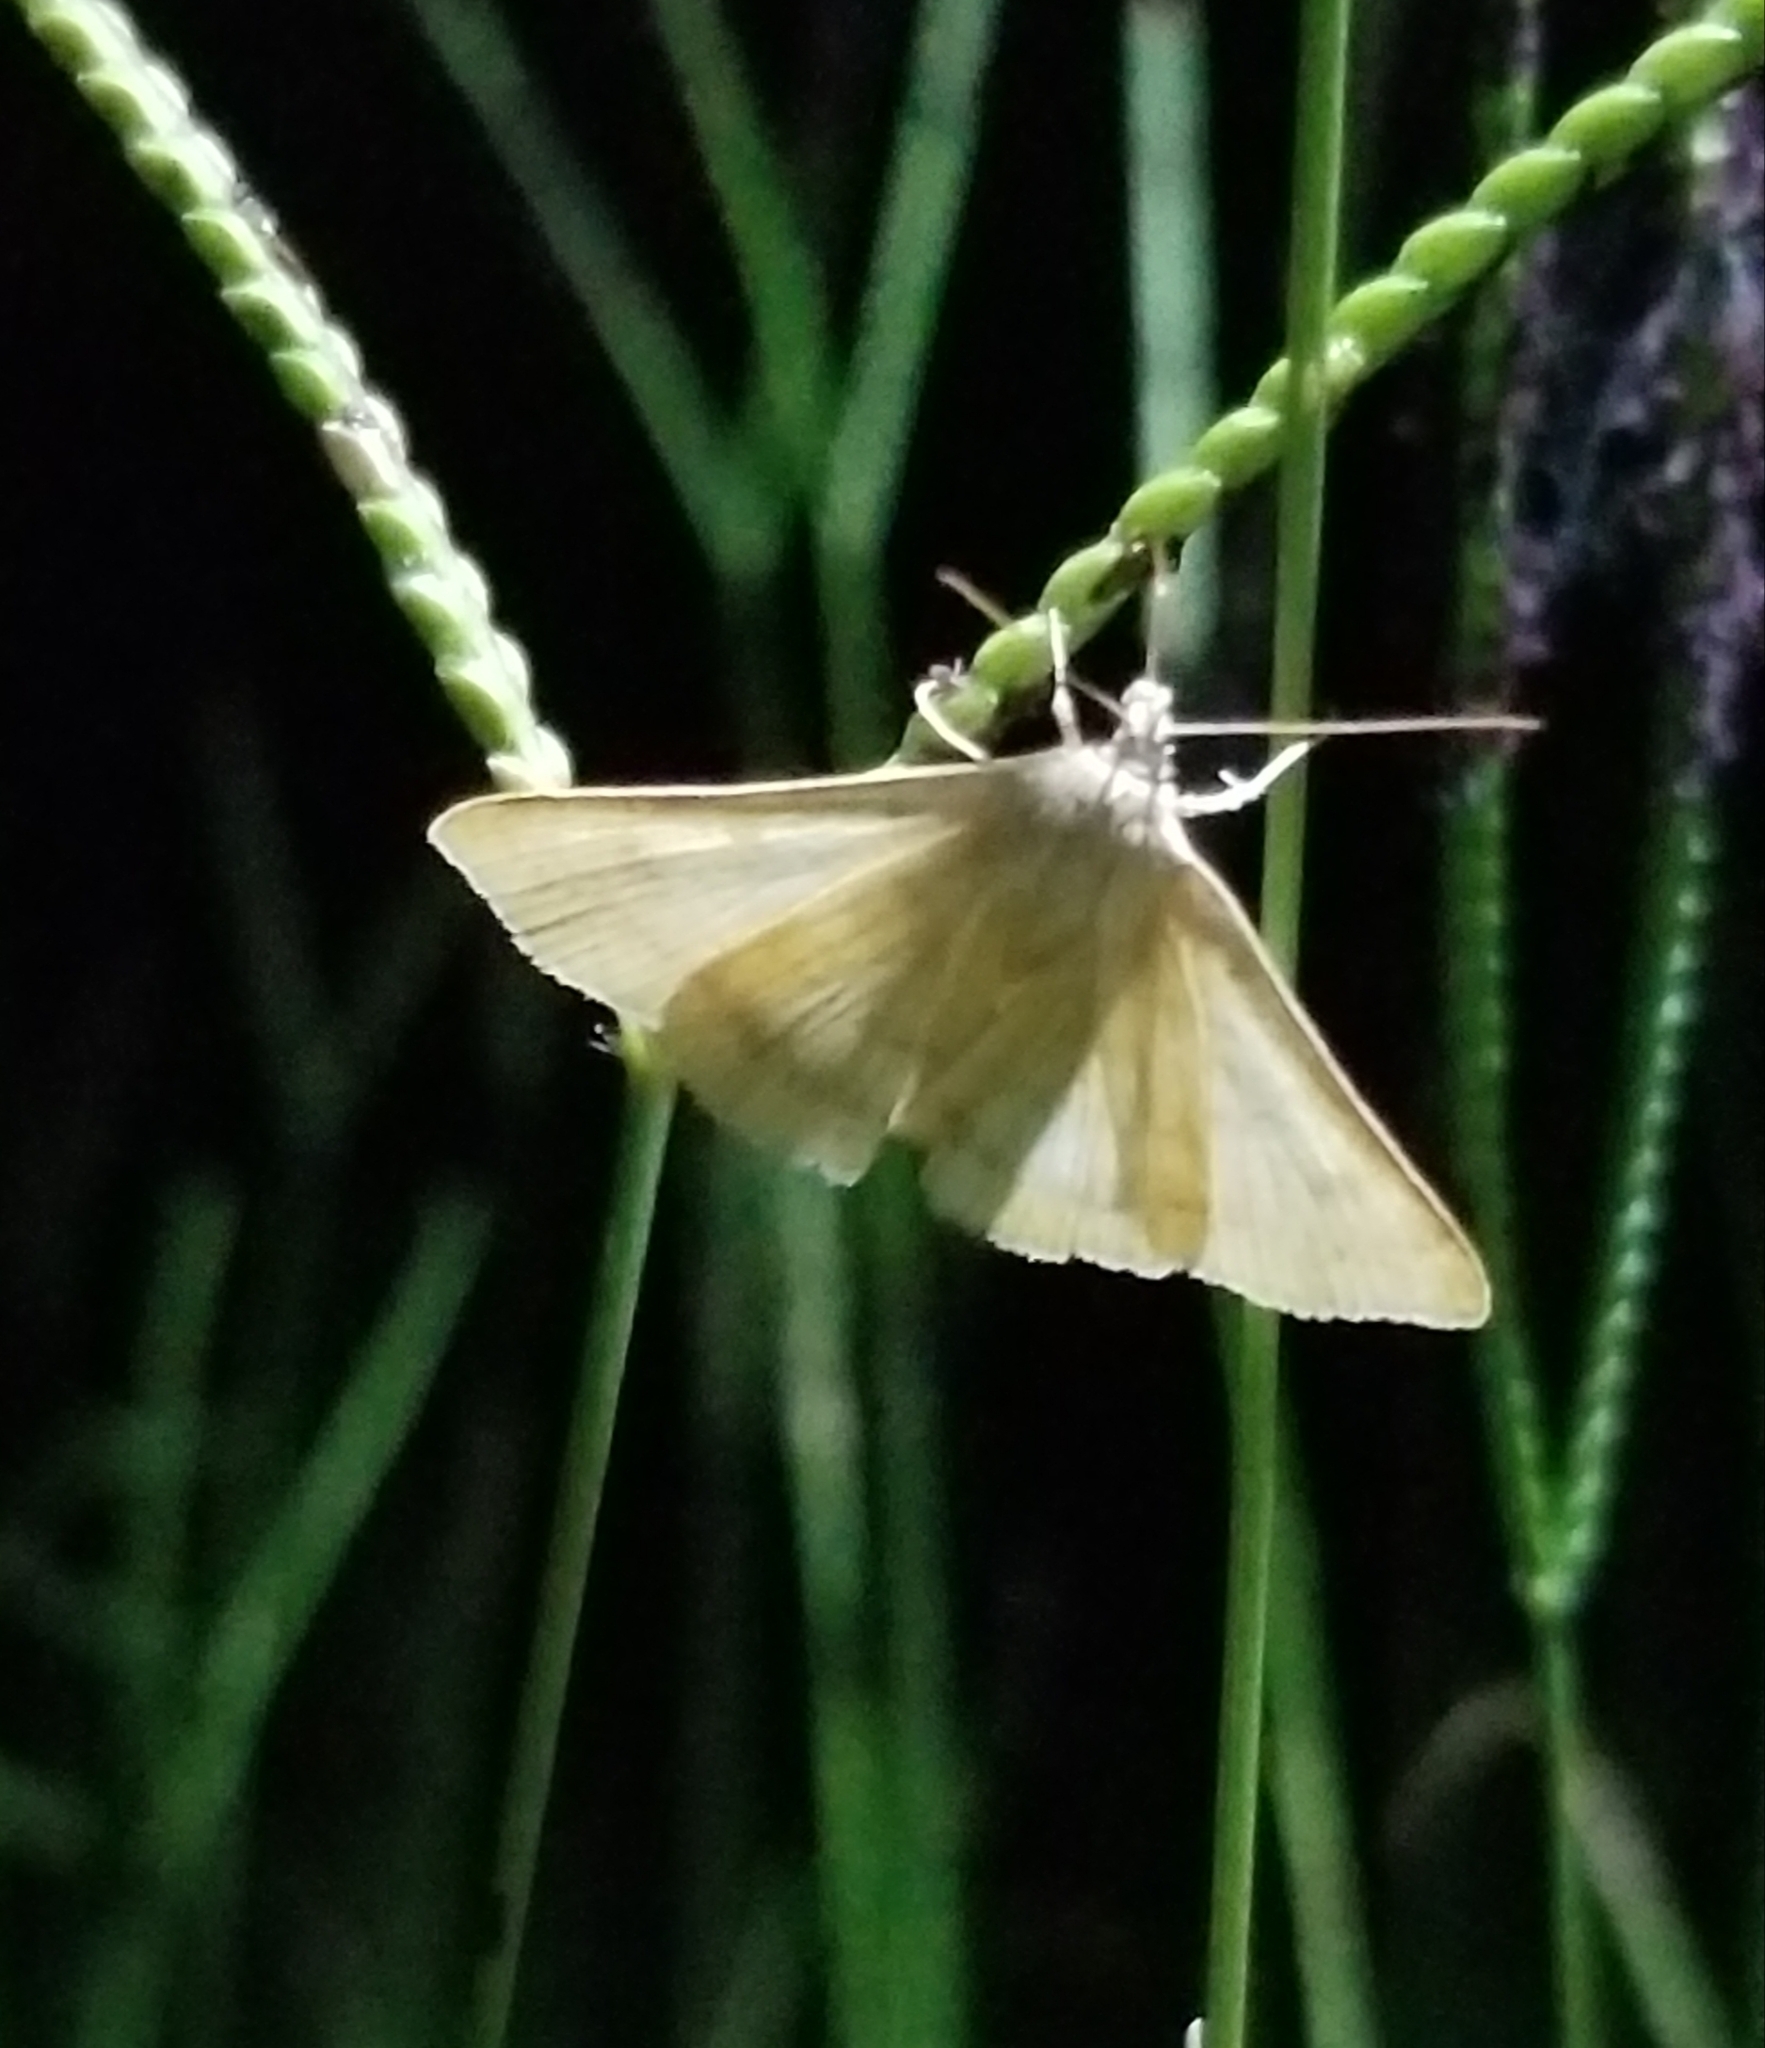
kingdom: Animalia
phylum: Arthropoda
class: Insecta
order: Lepidoptera
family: Erebidae
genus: Caenurgia
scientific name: Caenurgia chloropha
